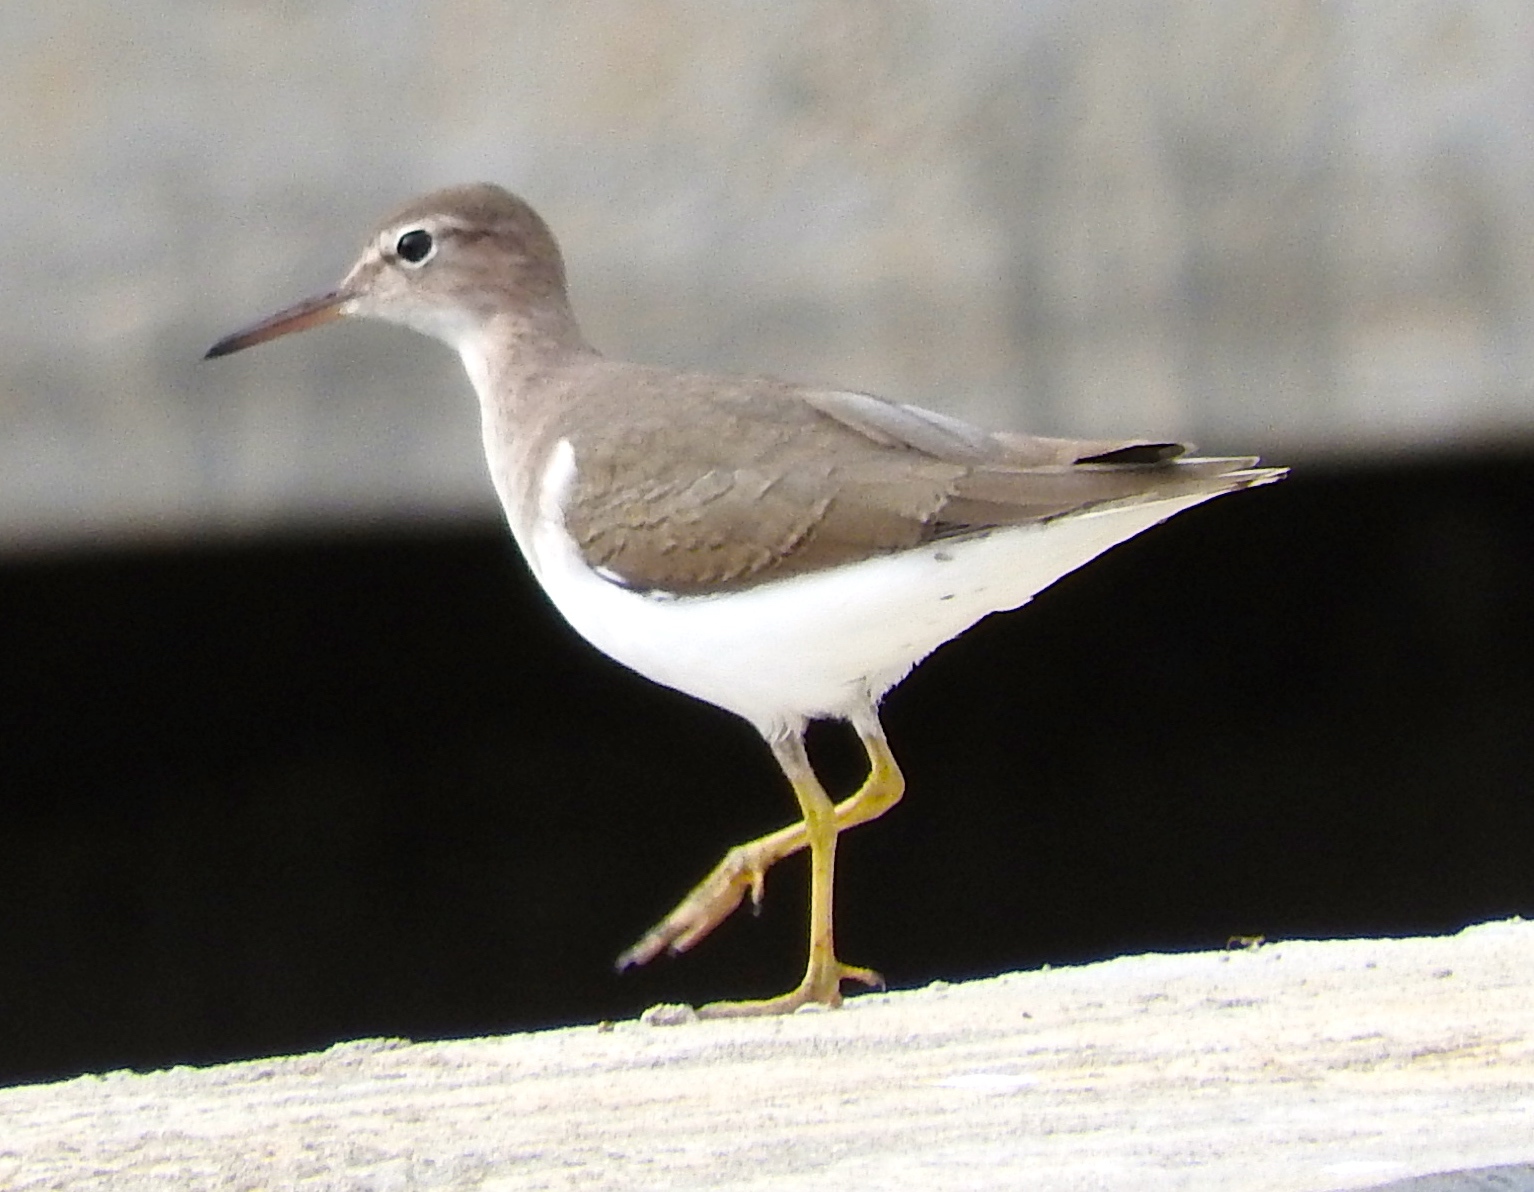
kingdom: Animalia
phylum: Chordata
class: Aves
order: Charadriiformes
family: Scolopacidae
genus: Actitis
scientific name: Actitis macularius
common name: Spotted sandpiper
